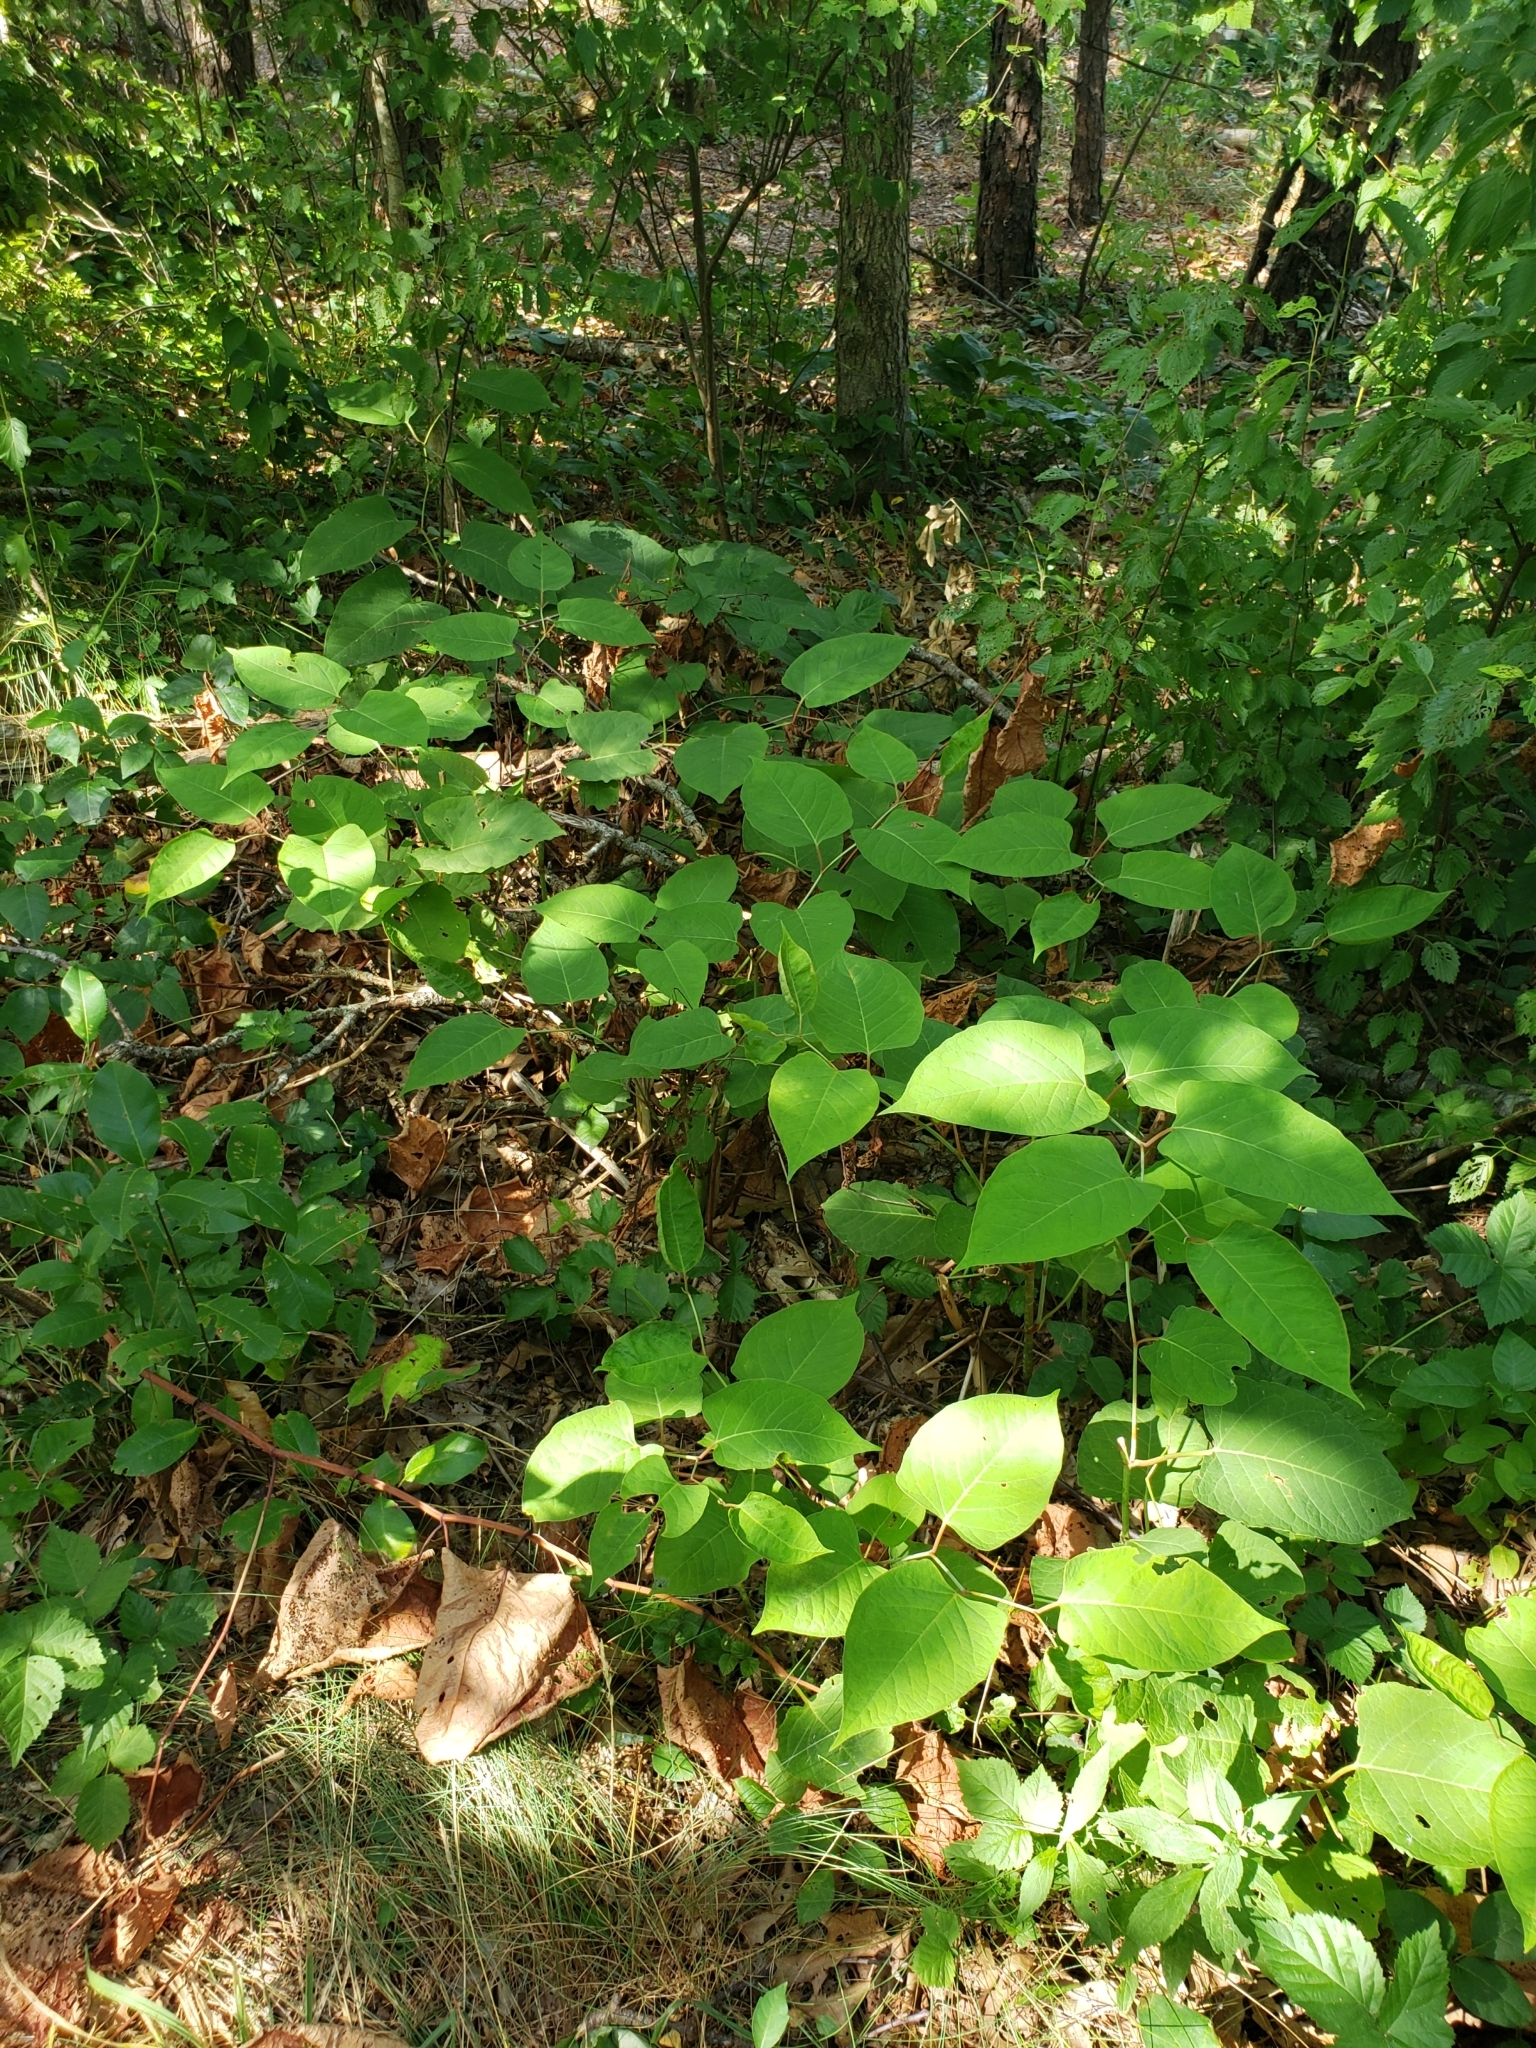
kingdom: Plantae
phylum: Tracheophyta
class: Magnoliopsida
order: Caryophyllales
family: Polygonaceae
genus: Reynoutria
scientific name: Reynoutria japonica
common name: Japanese knotweed
